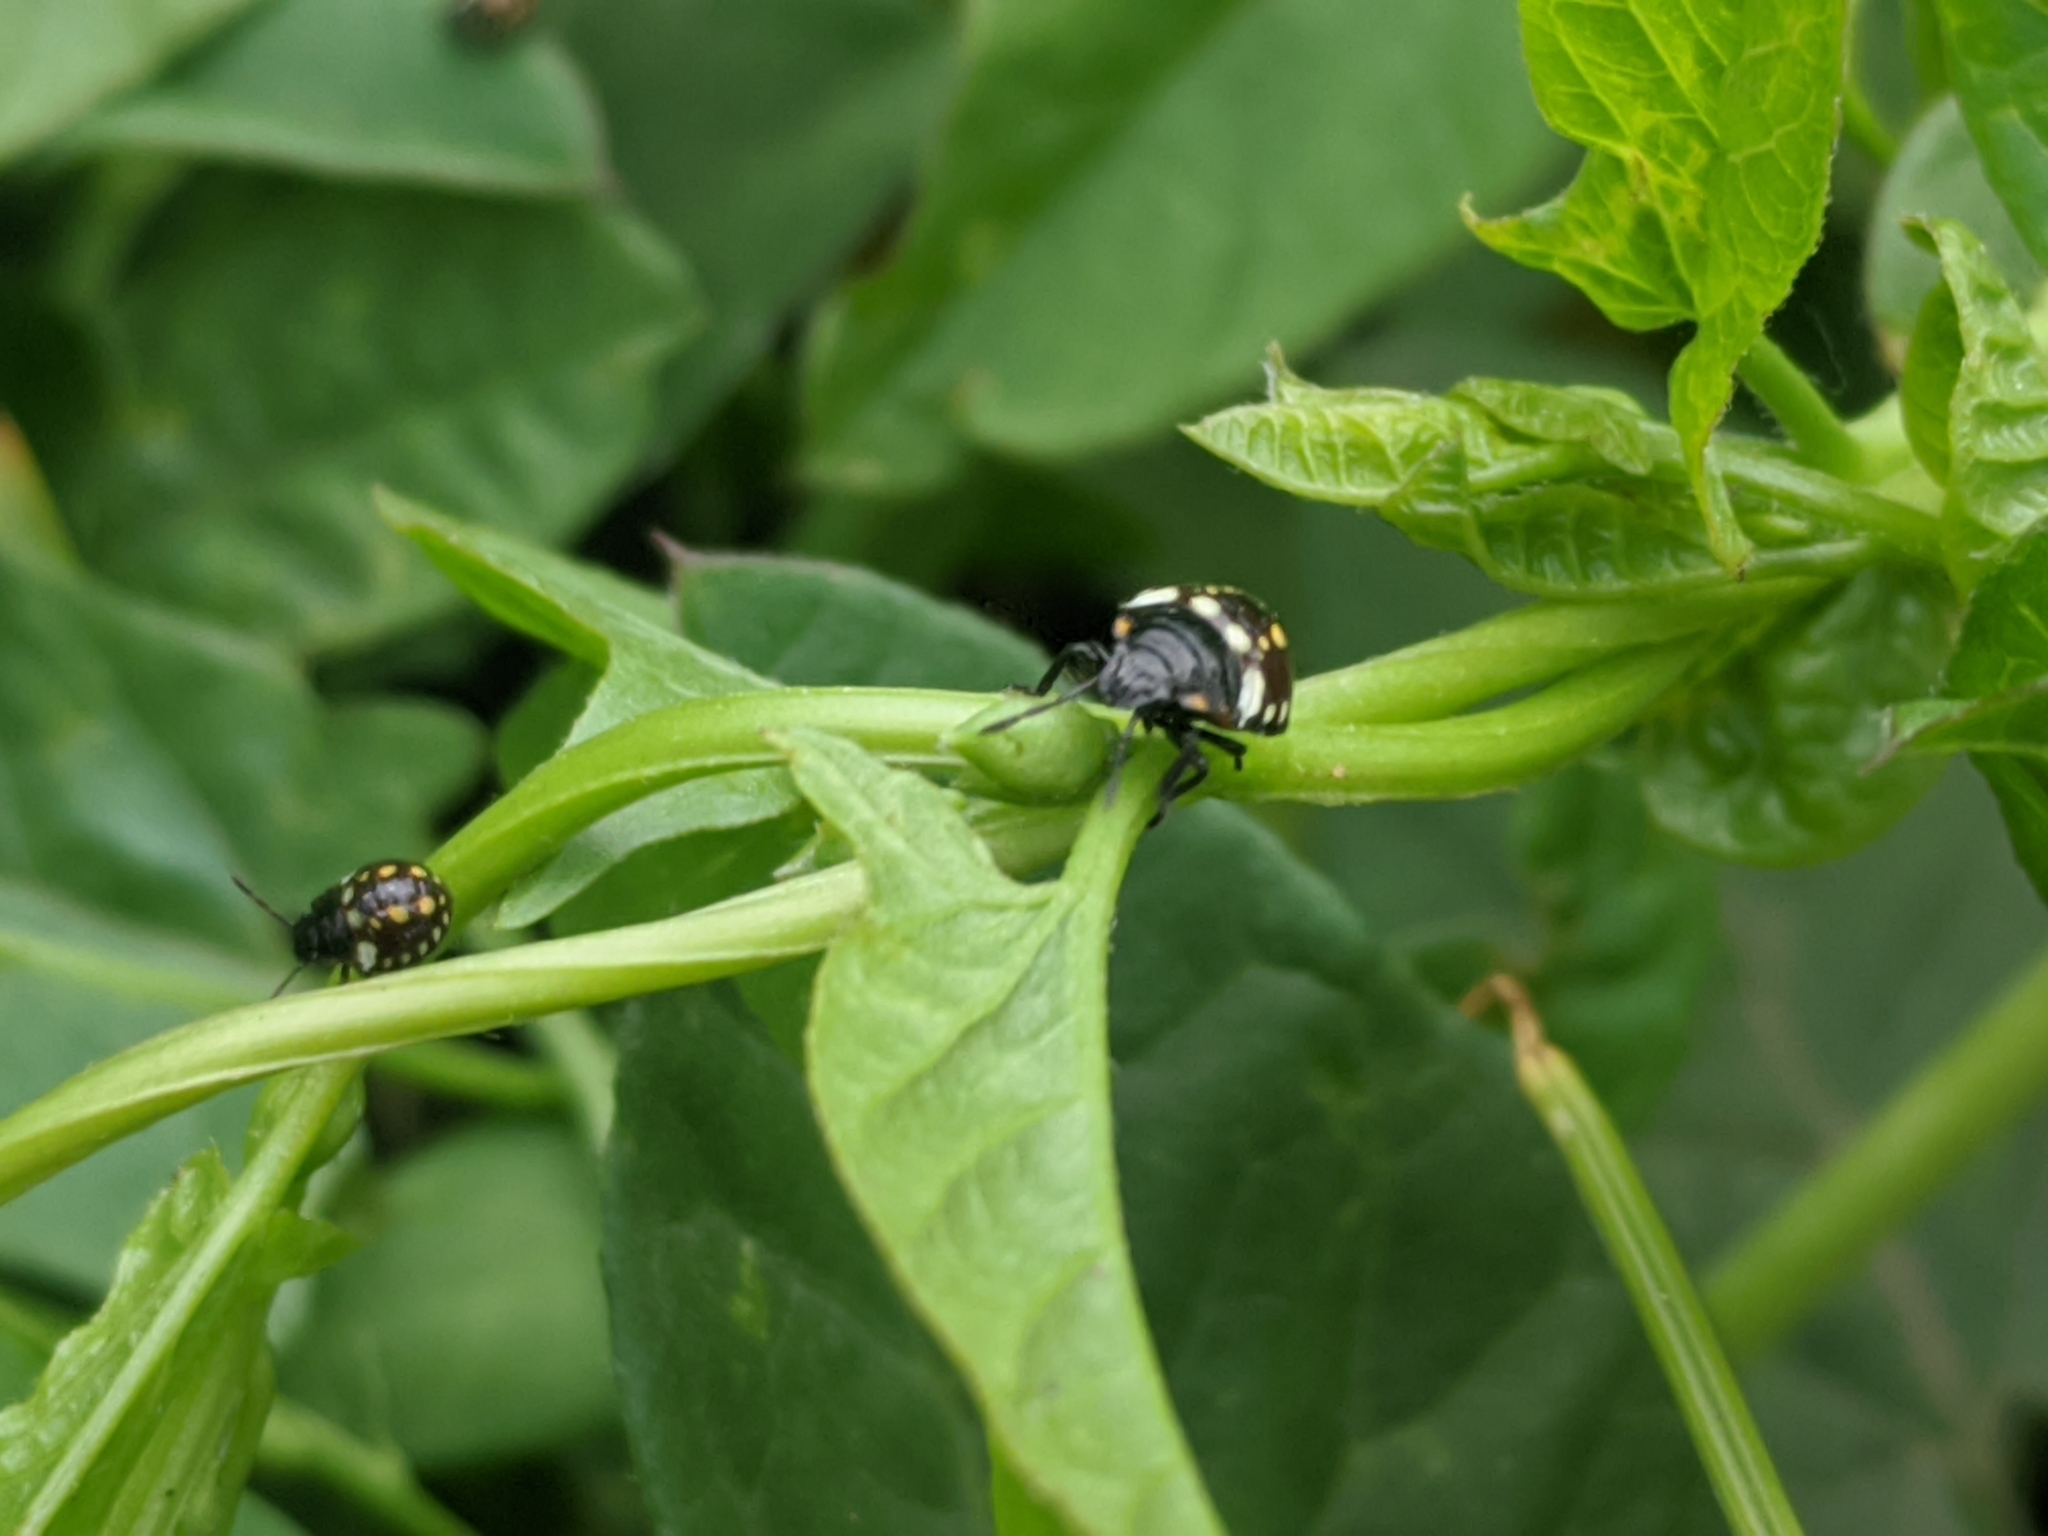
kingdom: Animalia
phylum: Arthropoda
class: Insecta
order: Hemiptera
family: Pentatomidae
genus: Nezara
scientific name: Nezara viridula
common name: Southern green stink bug
